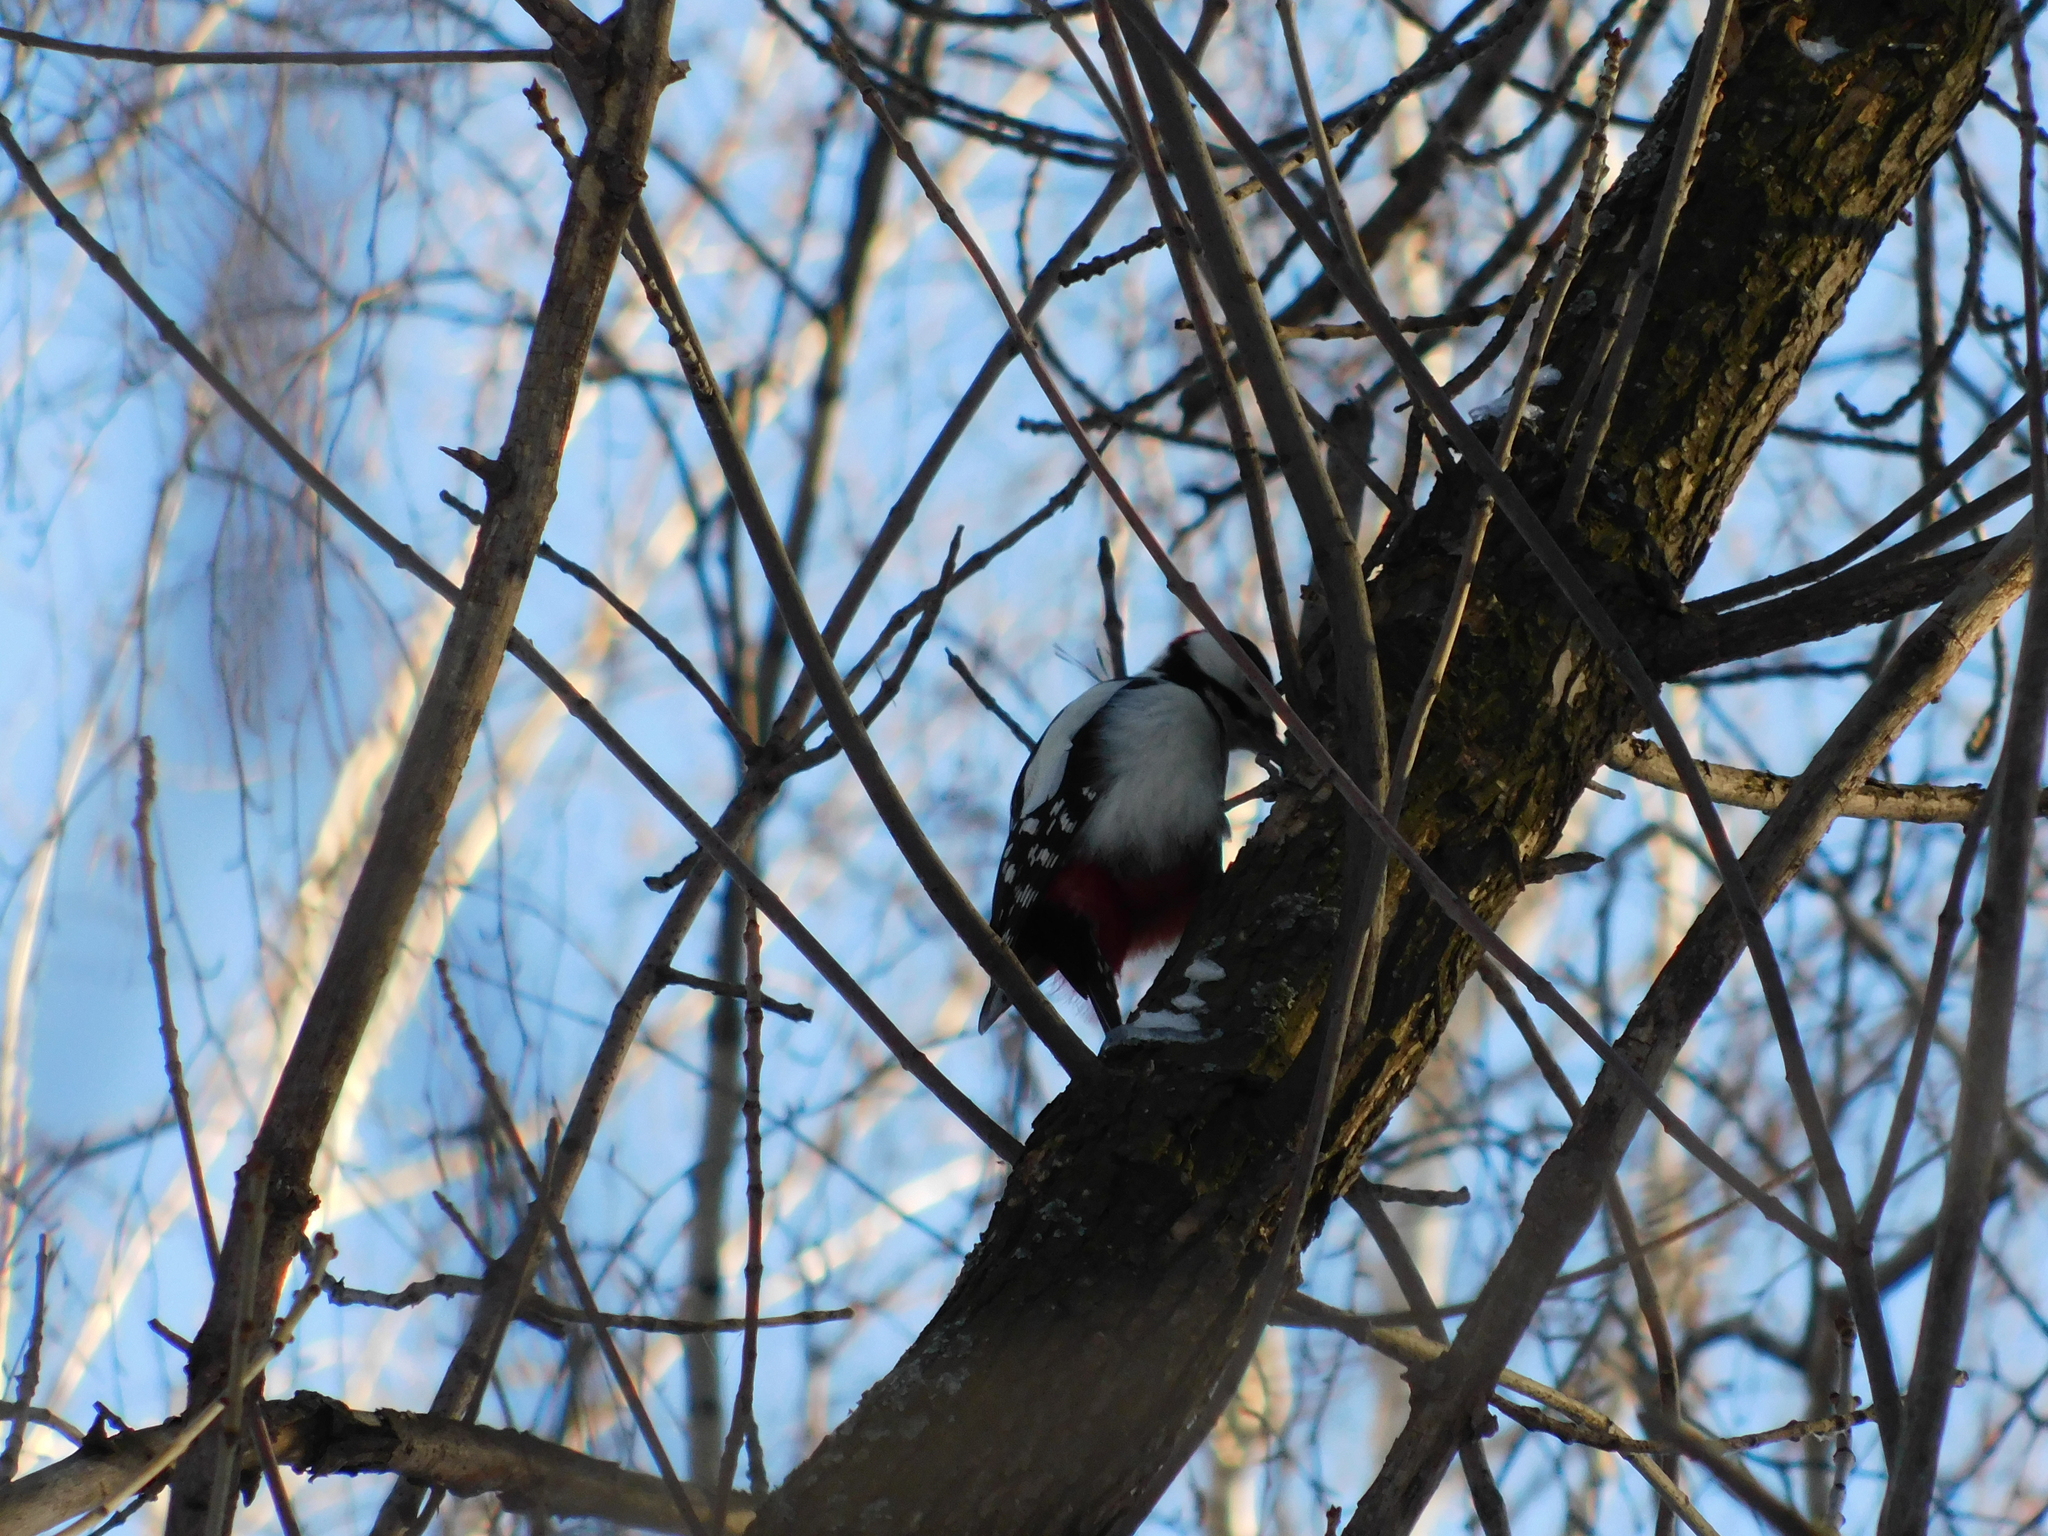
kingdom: Animalia
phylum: Chordata
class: Aves
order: Piciformes
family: Picidae
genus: Dendrocopos
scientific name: Dendrocopos major
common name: Great spotted woodpecker
